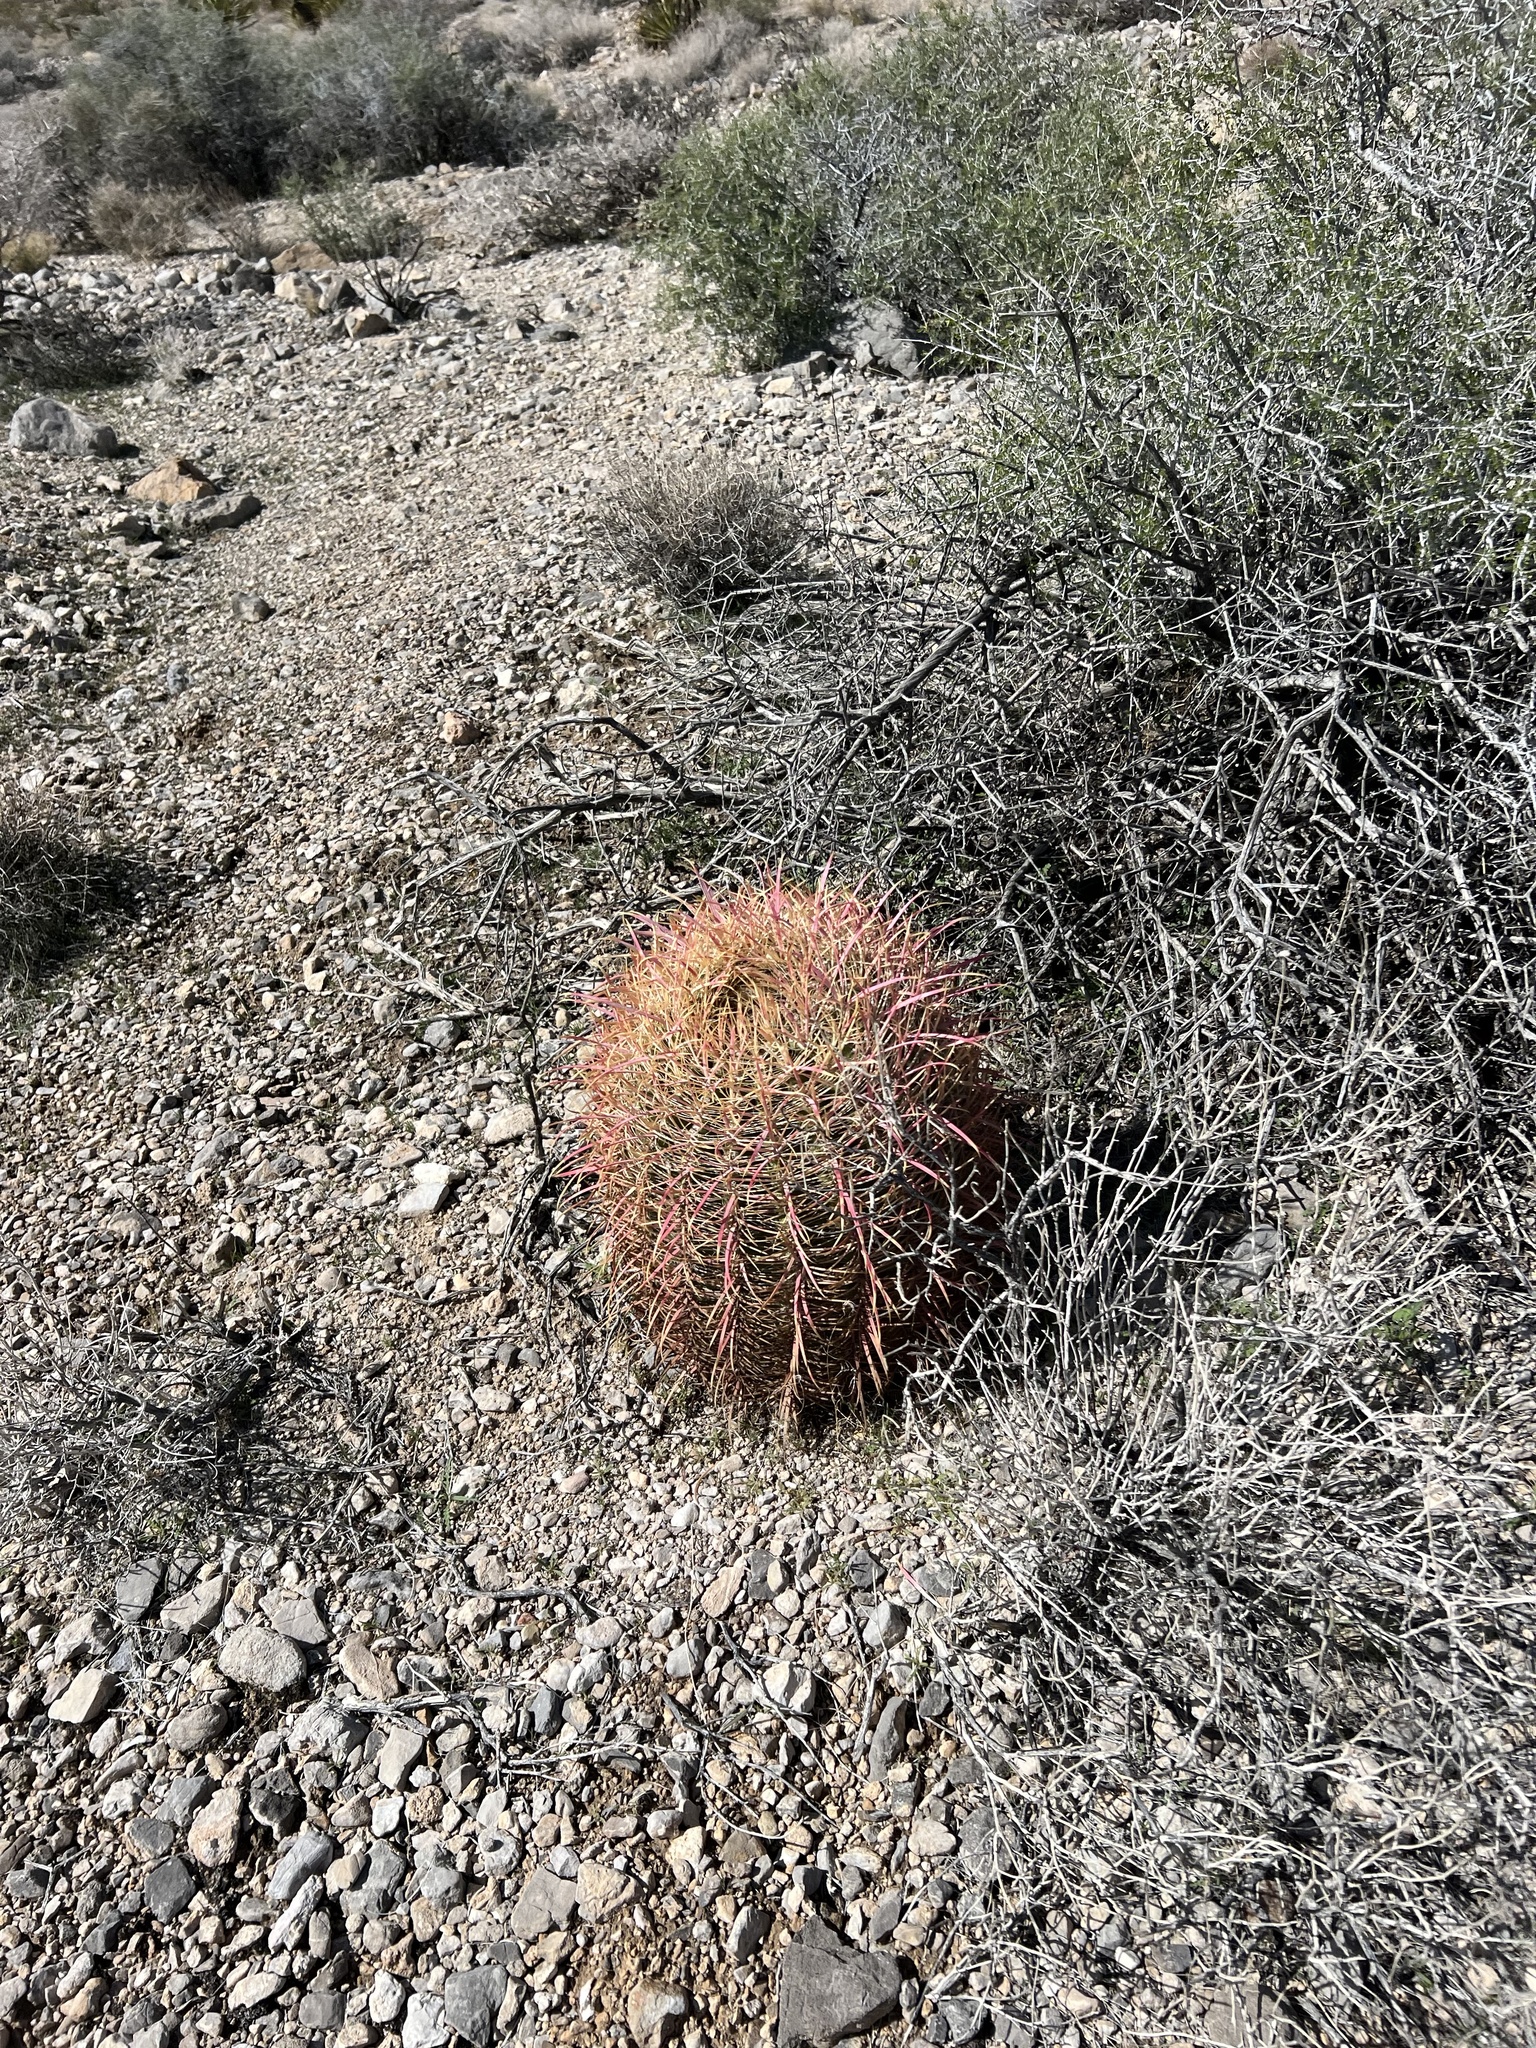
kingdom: Plantae
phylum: Tracheophyta
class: Magnoliopsida
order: Caryophyllales
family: Cactaceae
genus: Ferocactus
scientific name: Ferocactus cylindraceus
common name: California barrel cactus
